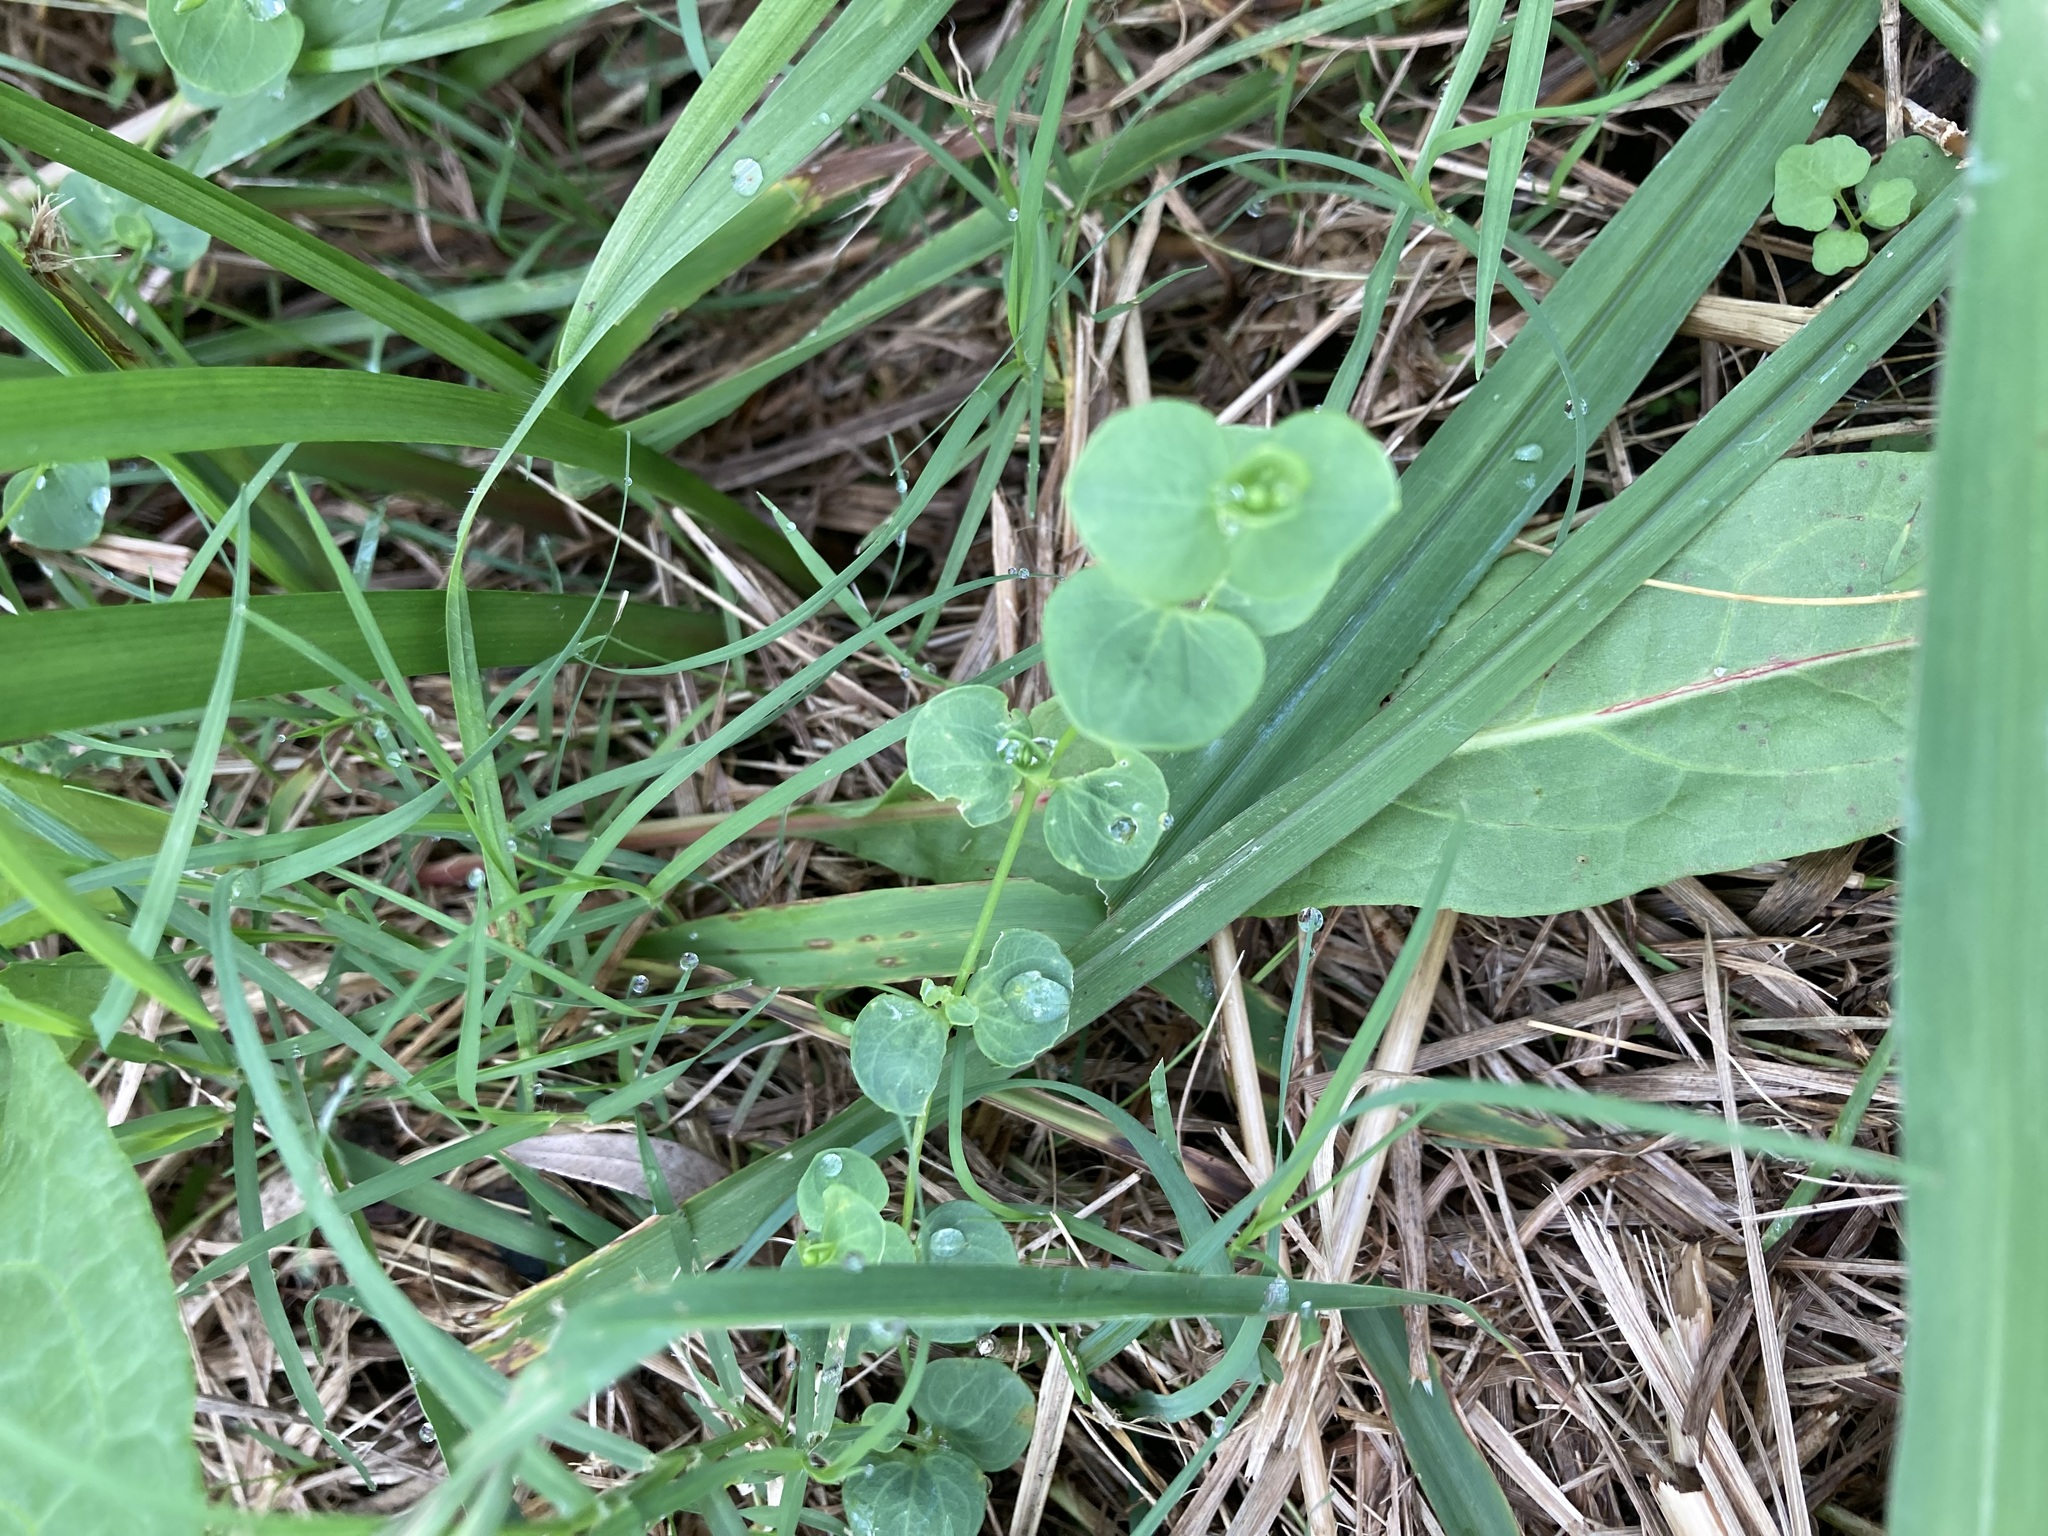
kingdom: Plantae
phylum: Tracheophyta
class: Magnoliopsida
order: Caryophyllales
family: Caryophyllaceae
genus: Drymaria
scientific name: Drymaria cordata
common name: Whitesnow
